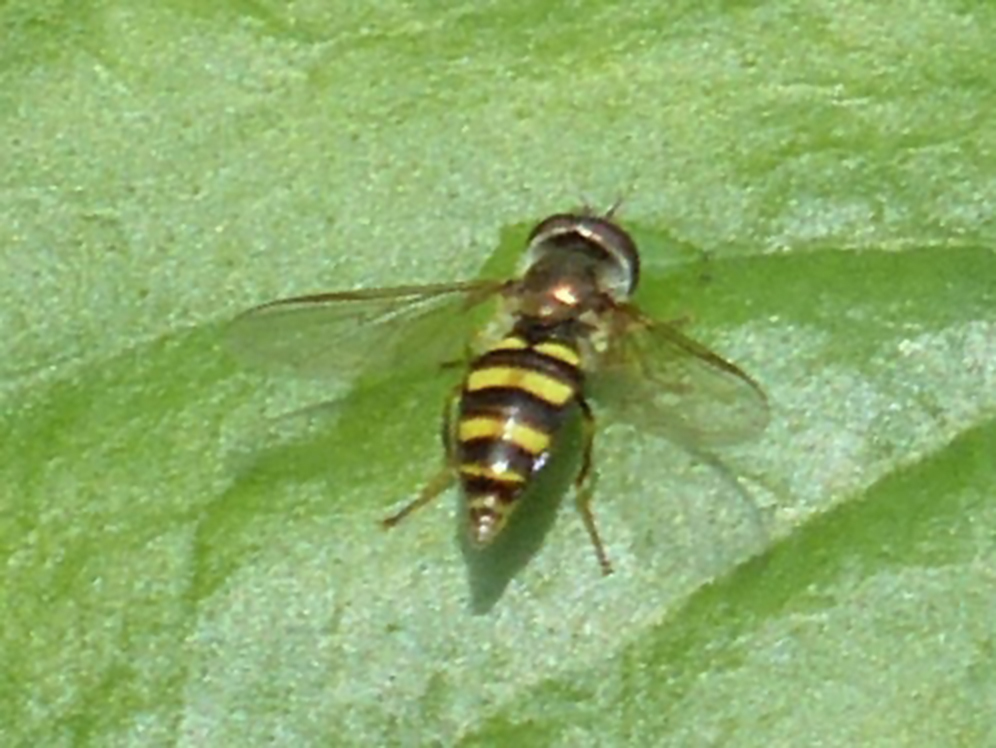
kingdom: Animalia
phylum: Arthropoda
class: Insecta
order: Diptera
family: Syrphidae
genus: Eupeodes
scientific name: Eupeodes
